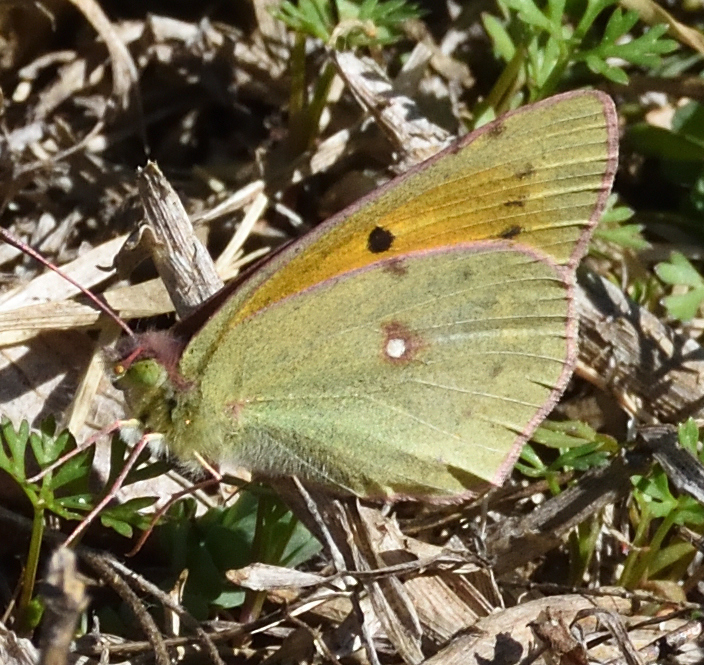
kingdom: Animalia
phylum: Arthropoda
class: Insecta
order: Lepidoptera
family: Pieridae
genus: Colias
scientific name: Colias electo
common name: African clouded yellow
